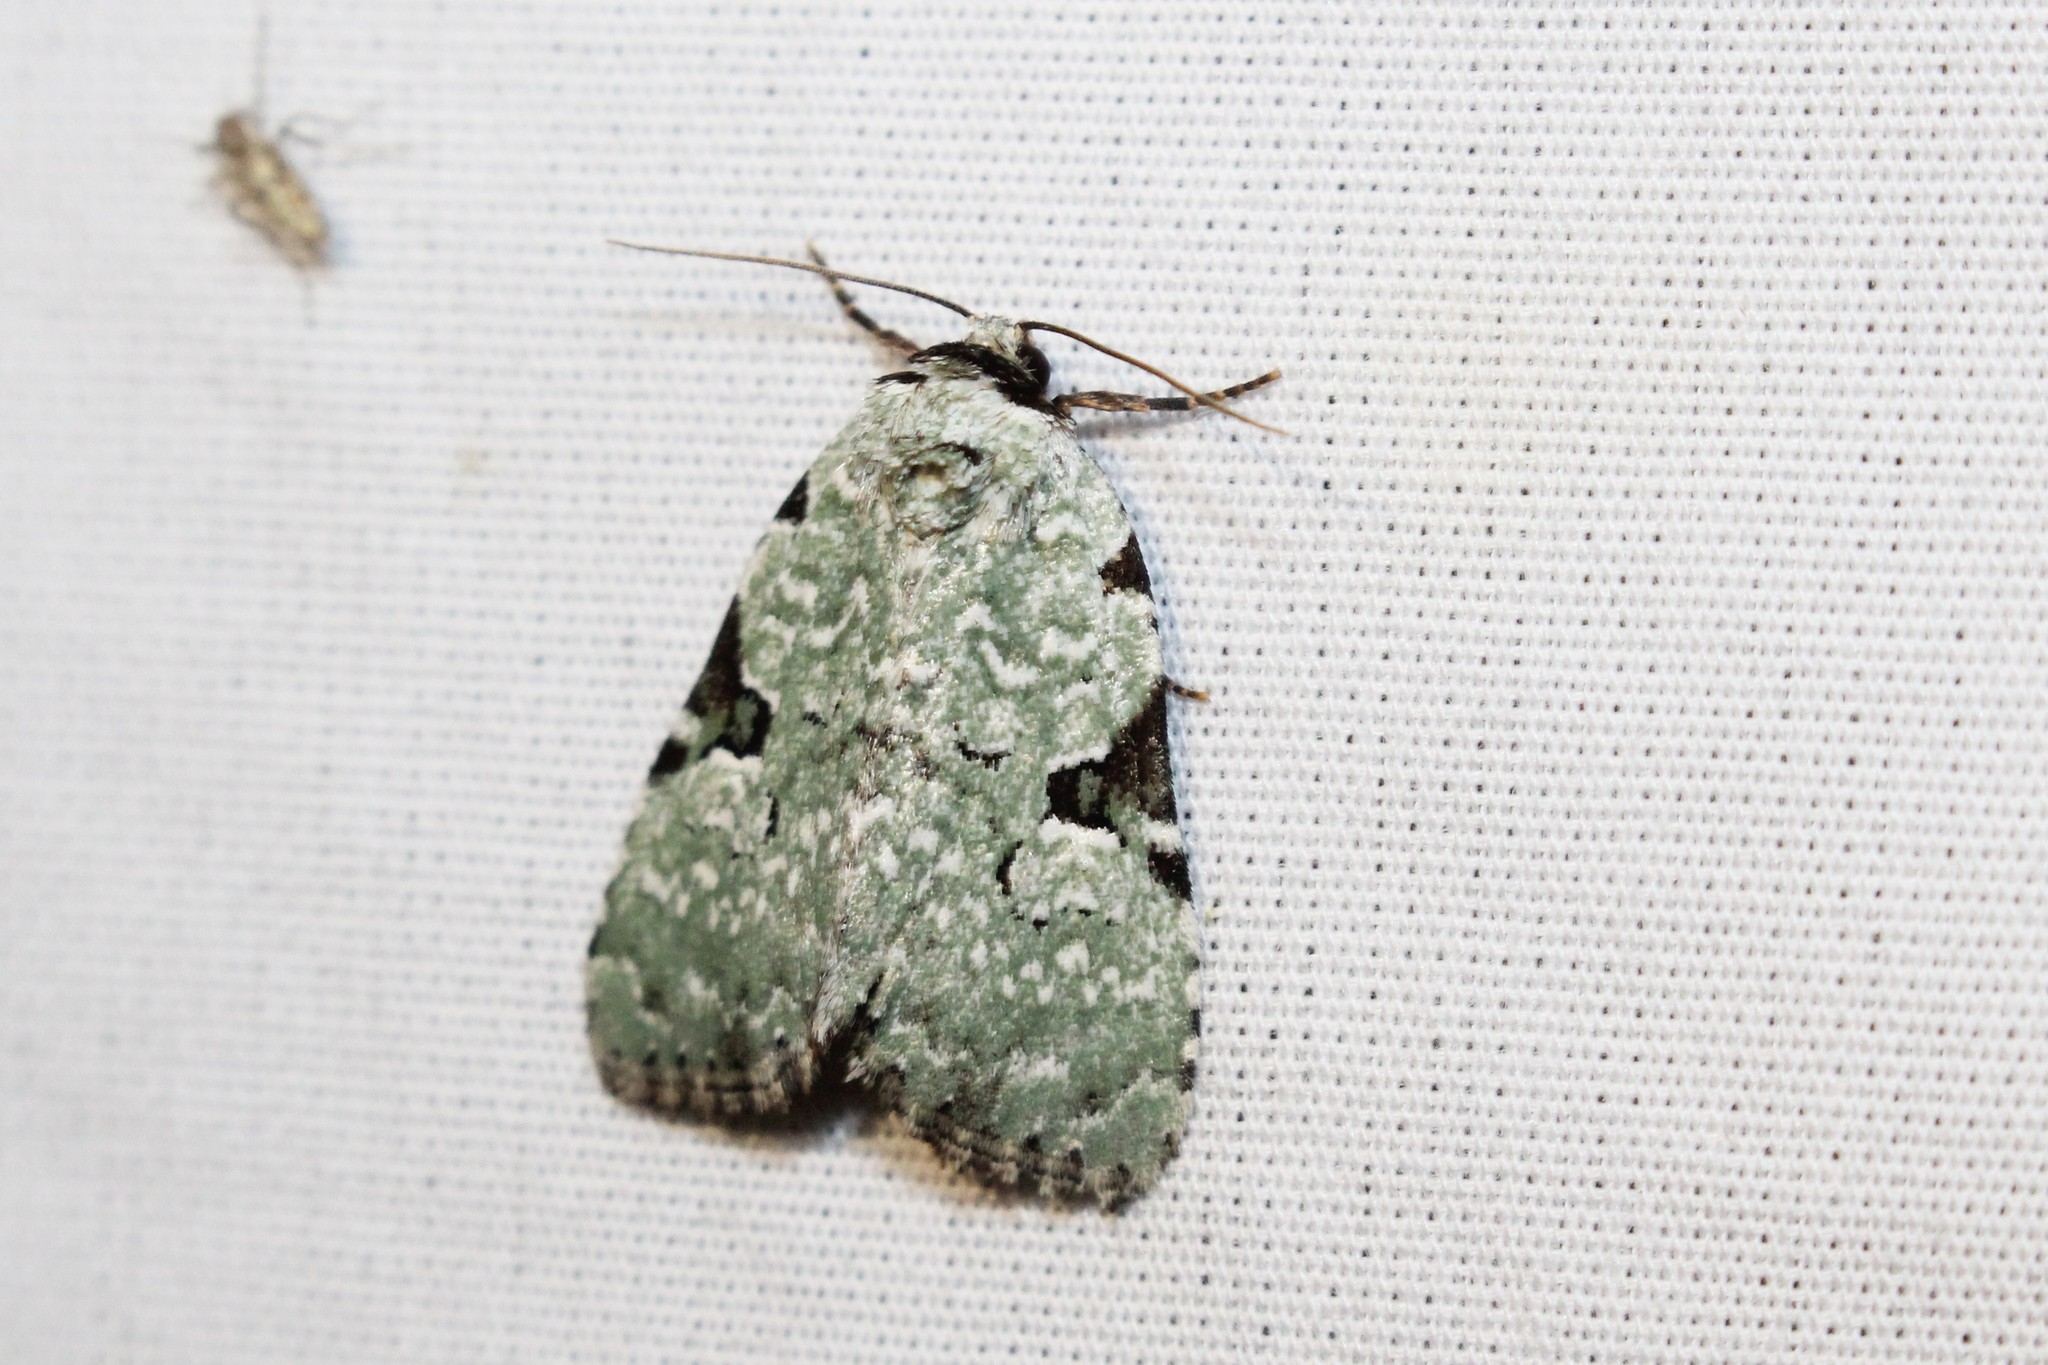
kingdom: Animalia
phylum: Arthropoda
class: Insecta
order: Lepidoptera
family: Noctuidae
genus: Leuconycta
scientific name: Leuconycta diphteroides
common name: Green leuconycta moth
